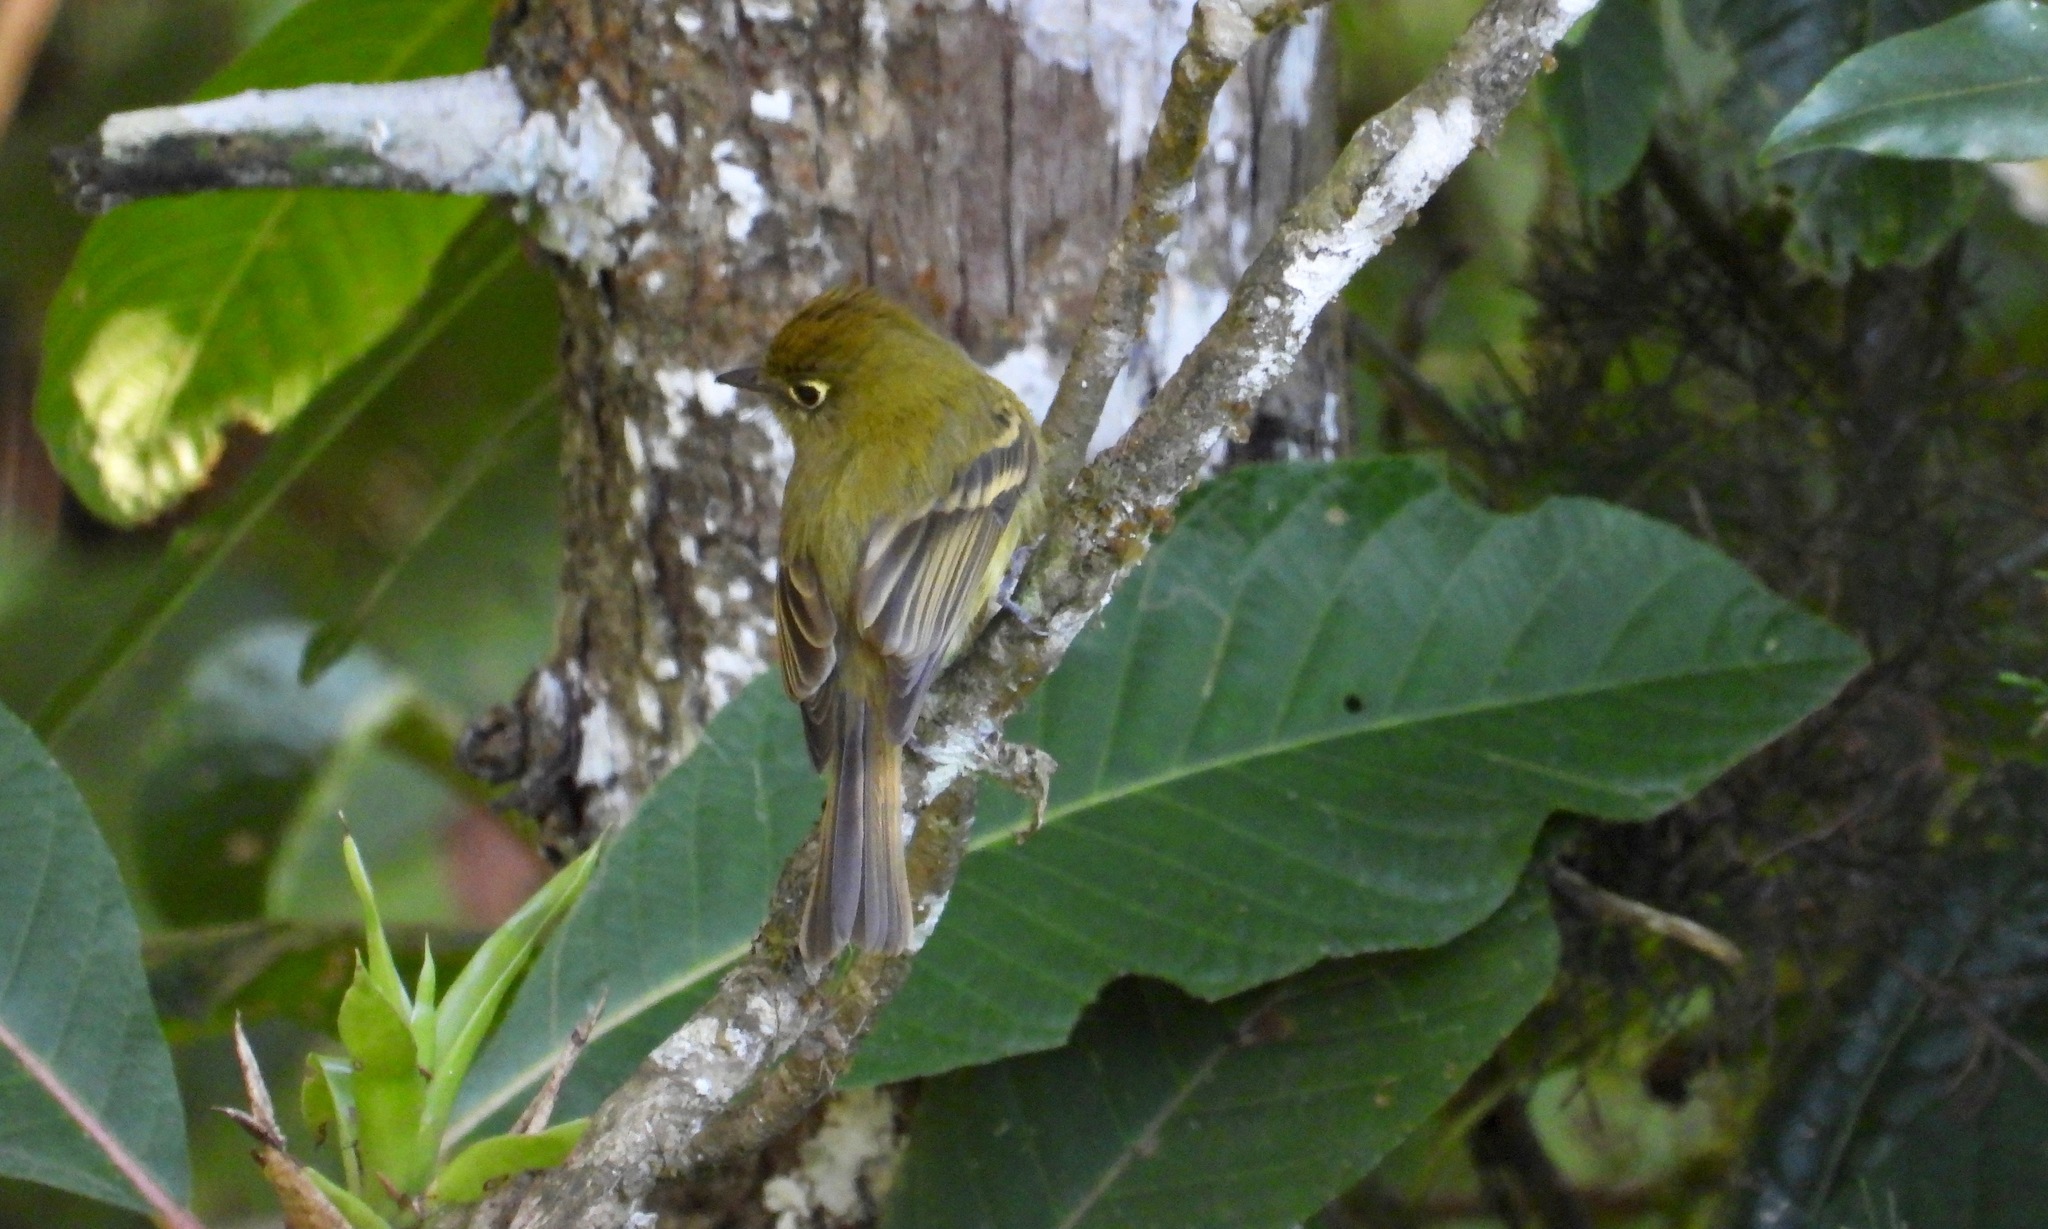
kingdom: Animalia
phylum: Chordata
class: Aves
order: Passeriformes
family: Tyrannidae
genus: Empidonax
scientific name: Empidonax flavescens
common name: Yellowish flycatcher
